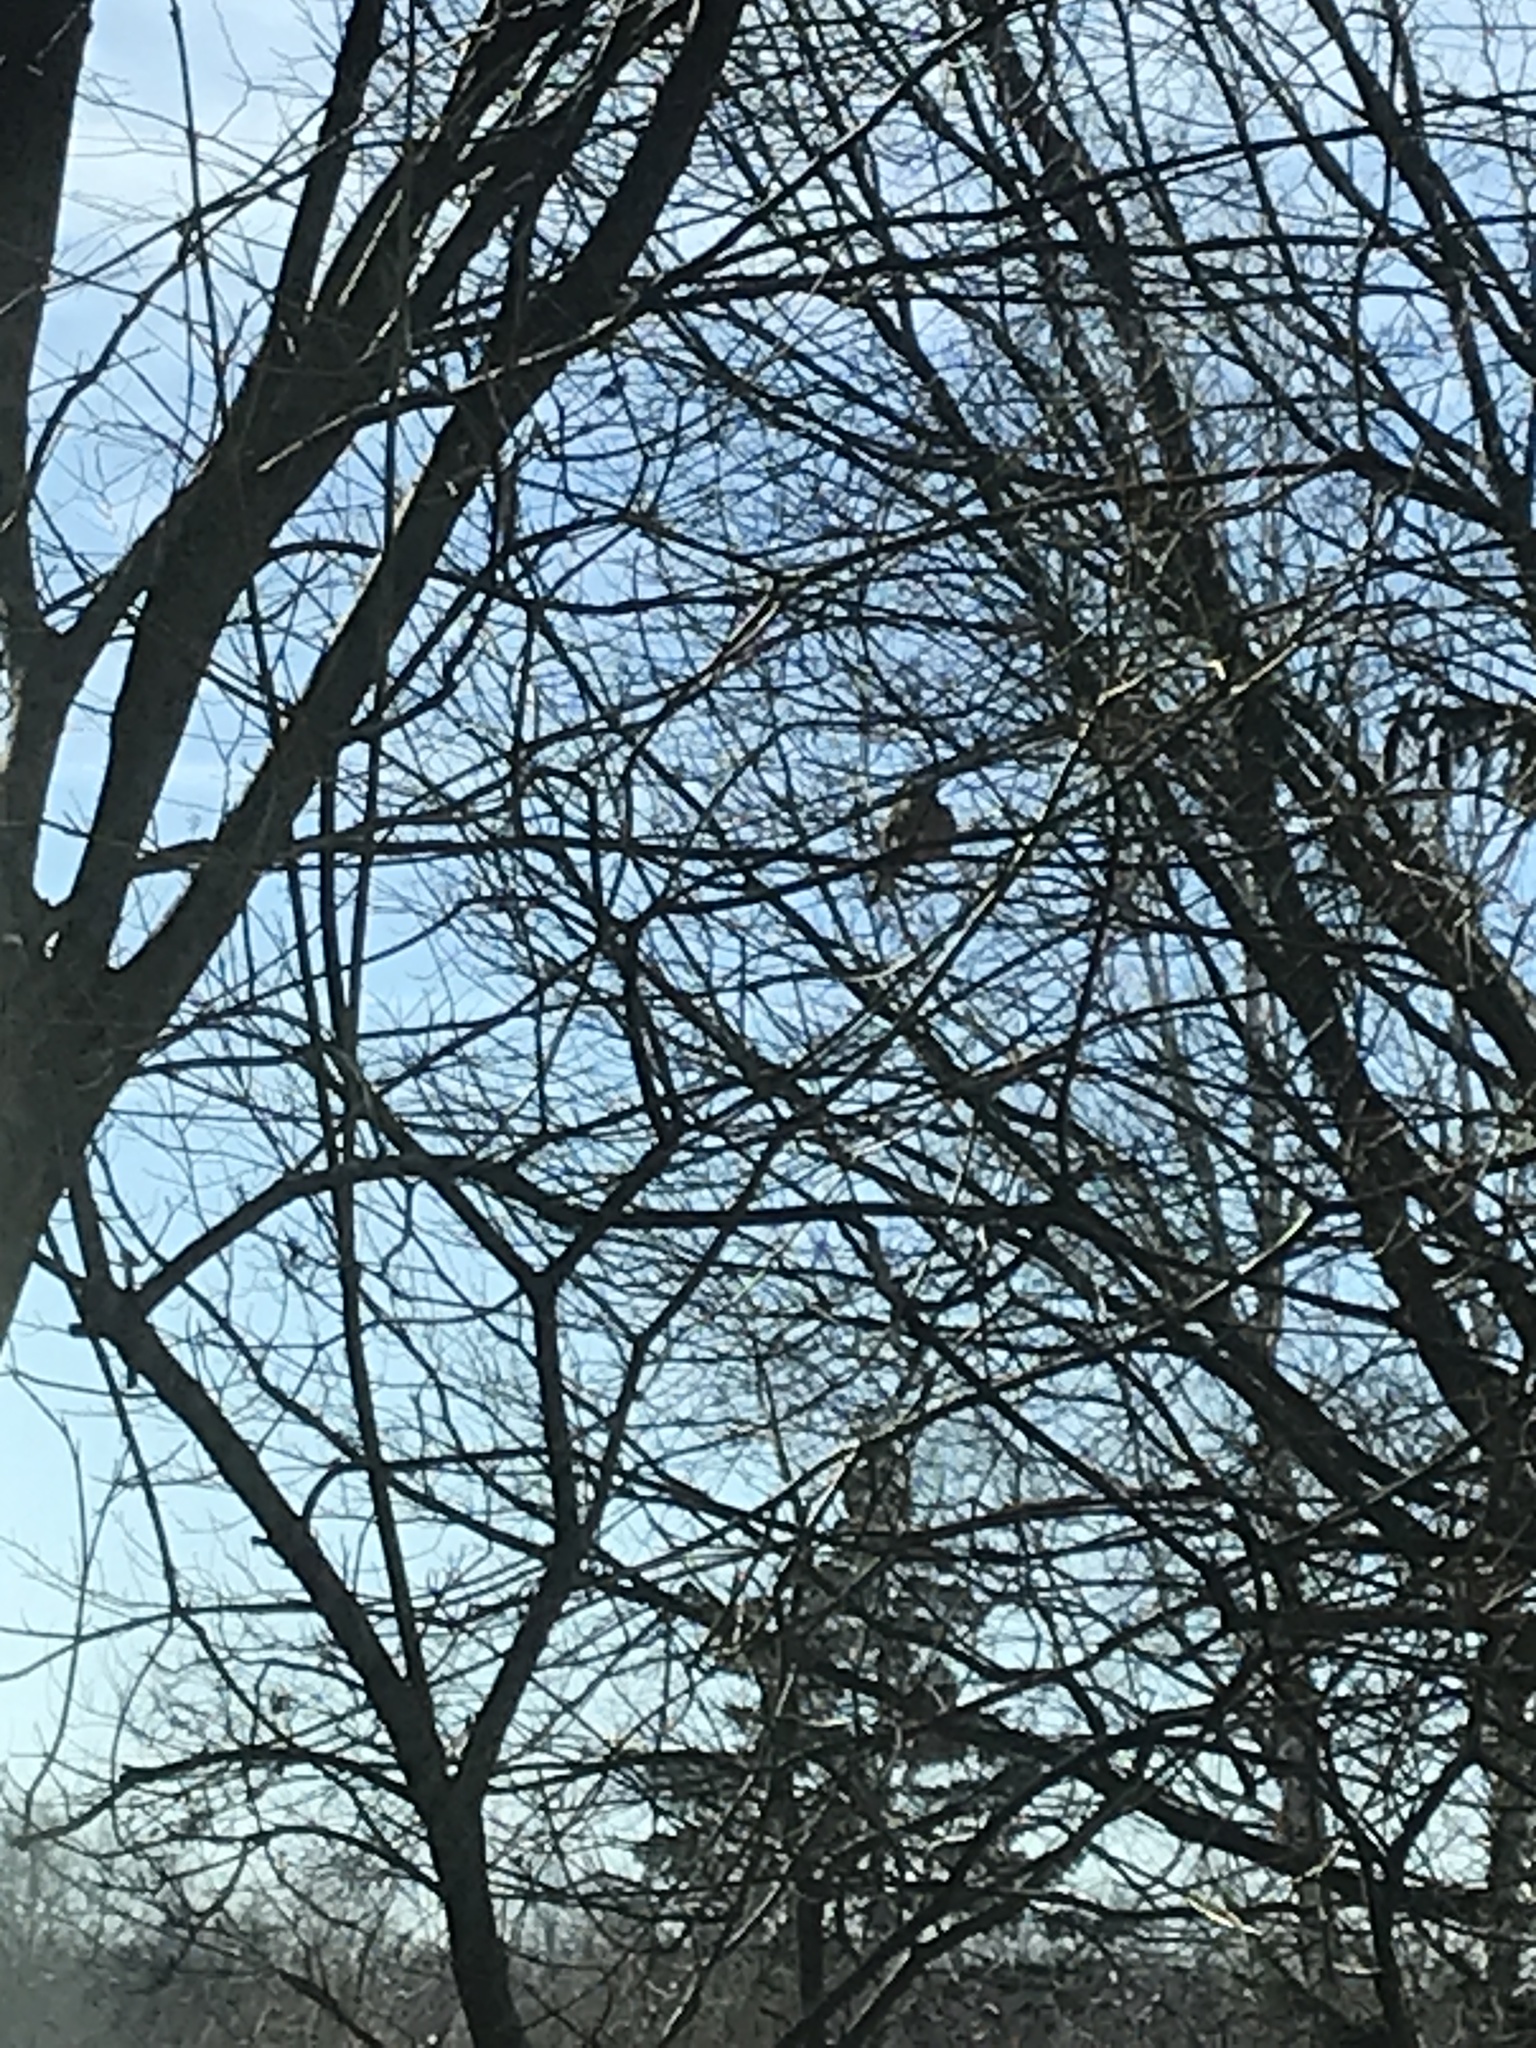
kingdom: Animalia
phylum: Chordata
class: Aves
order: Columbiformes
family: Columbidae
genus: Zenaida
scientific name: Zenaida macroura
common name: Mourning dove
